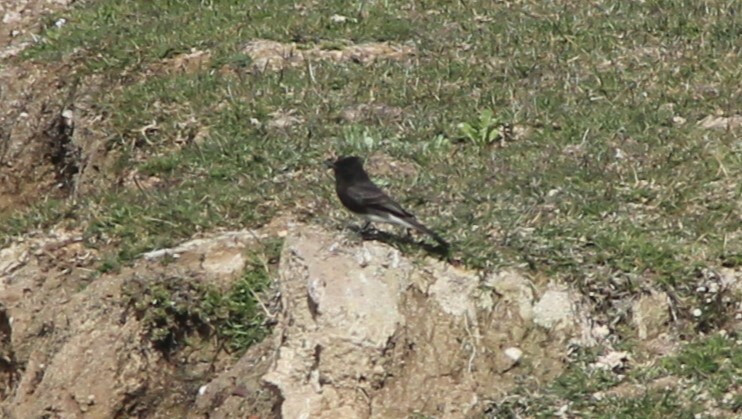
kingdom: Animalia
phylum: Chordata
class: Aves
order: Passeriformes
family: Tyrannidae
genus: Sayornis
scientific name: Sayornis nigricans
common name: Black phoebe
